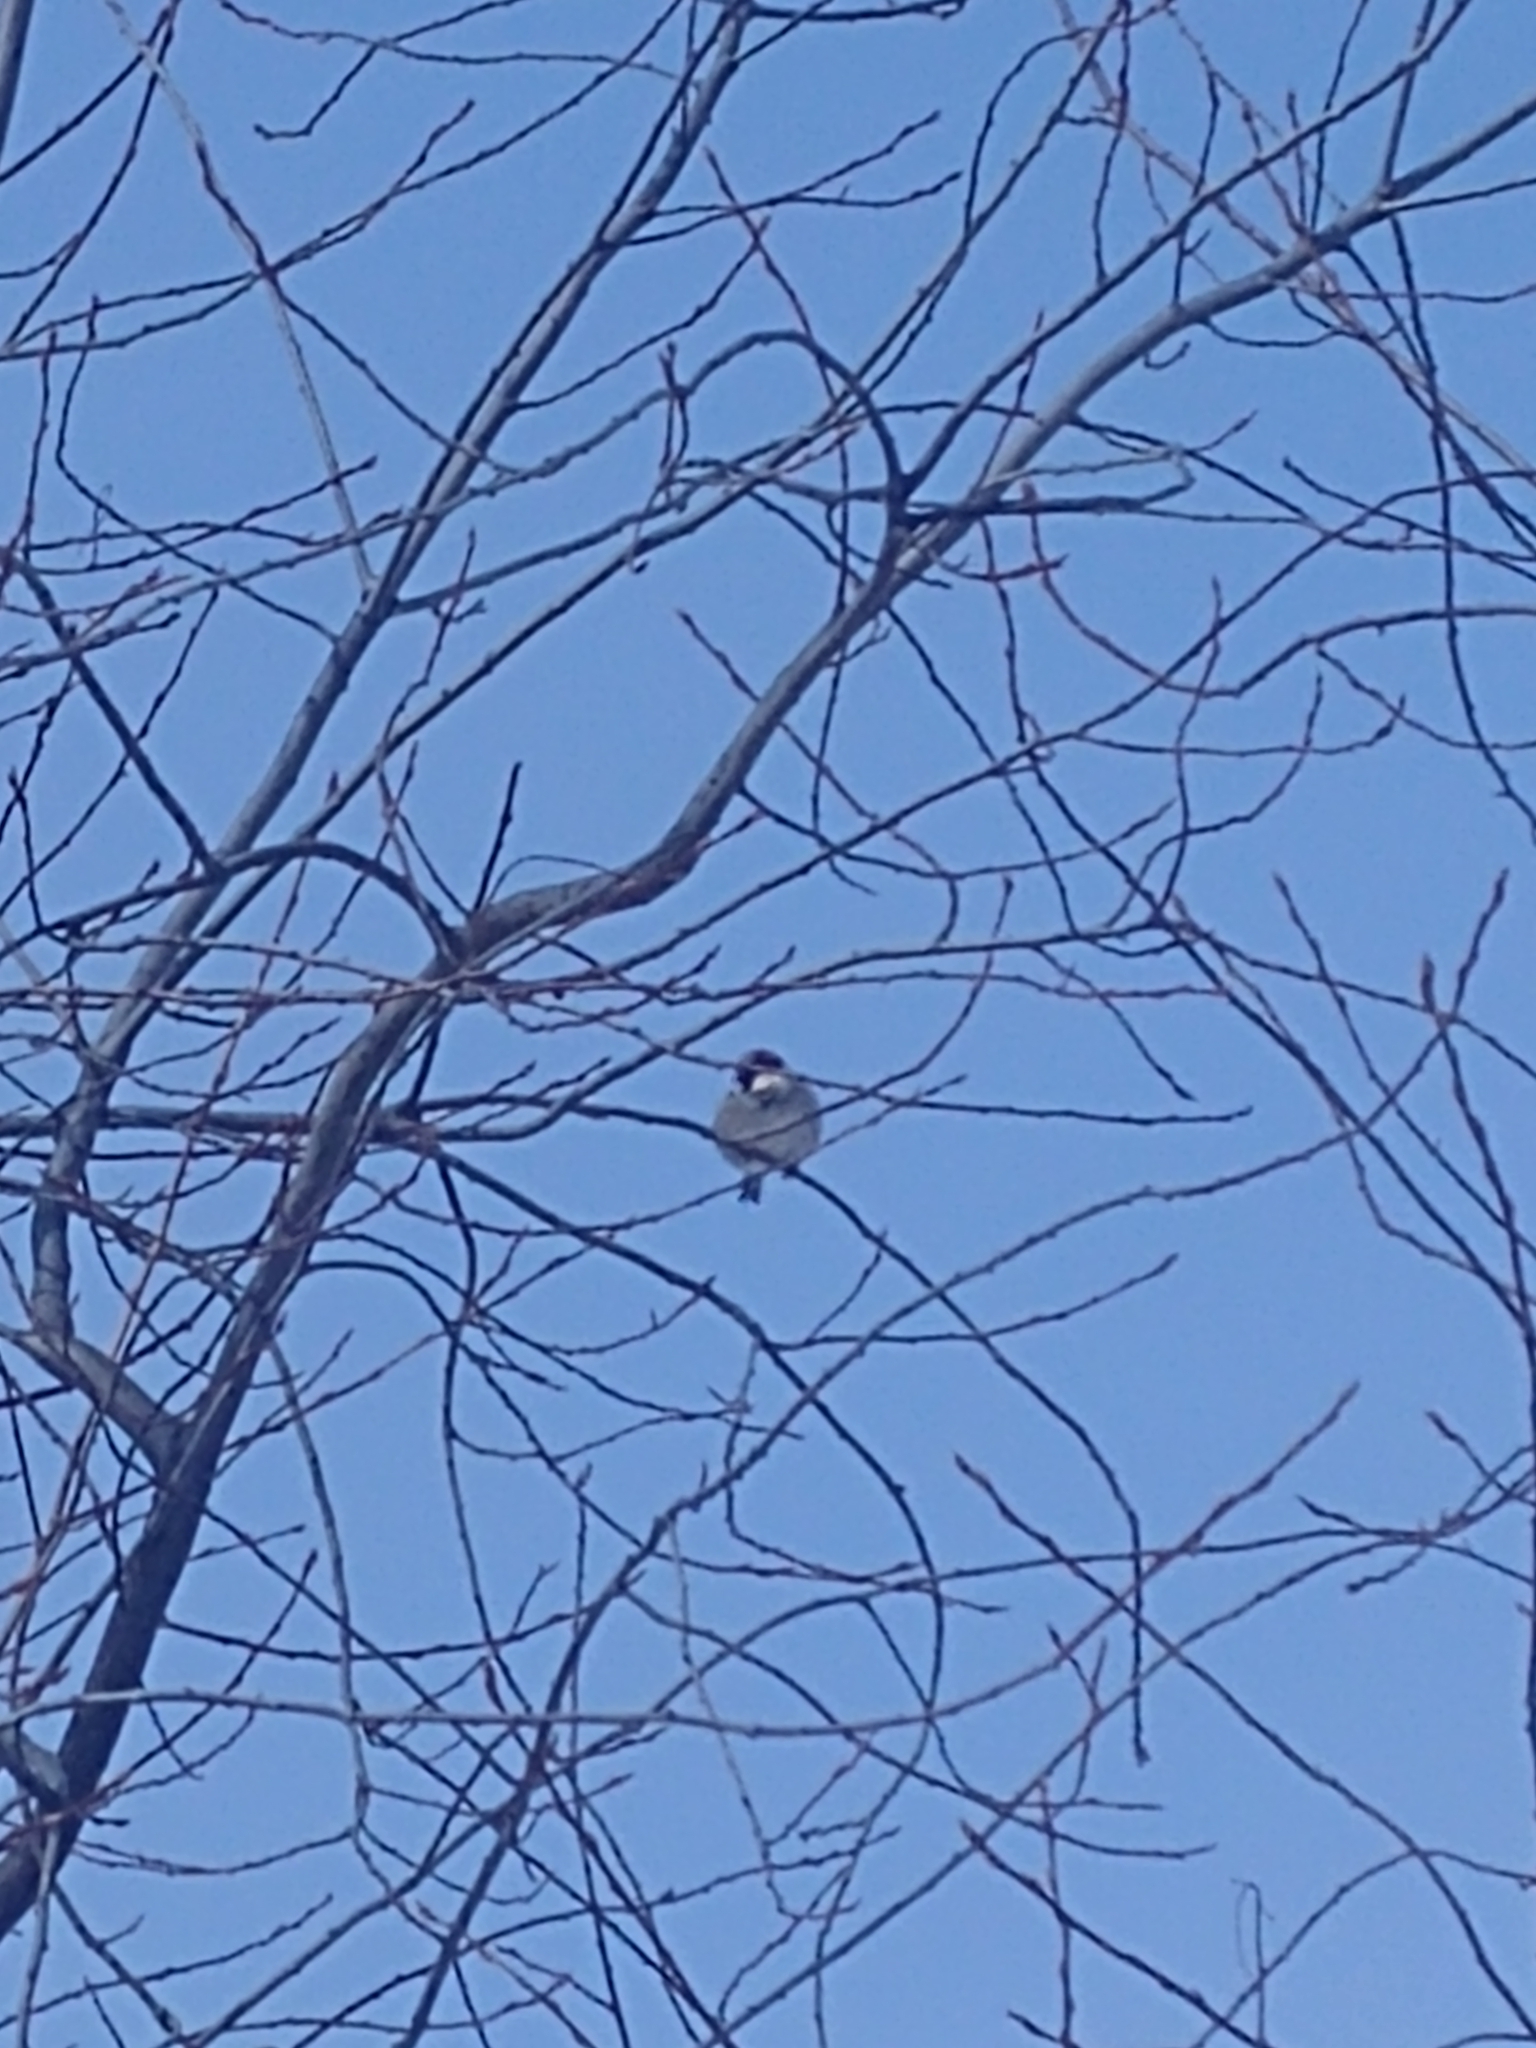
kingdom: Animalia
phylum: Chordata
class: Aves
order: Passeriformes
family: Passeridae
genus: Passer
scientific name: Passer domesticus
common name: House sparrow
